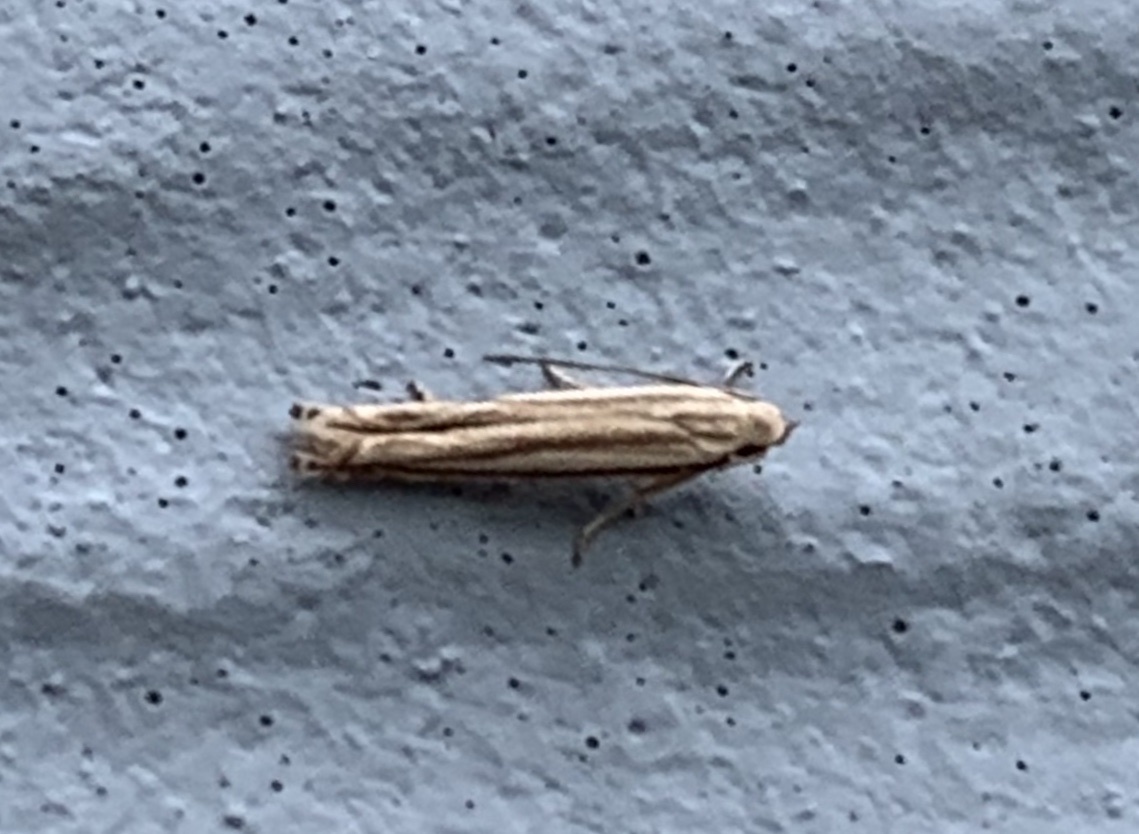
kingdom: Animalia
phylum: Arthropoda
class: Insecta
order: Lepidoptera
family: Gelechiidae
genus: Polyhymno
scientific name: Polyhymno luteostrigella
